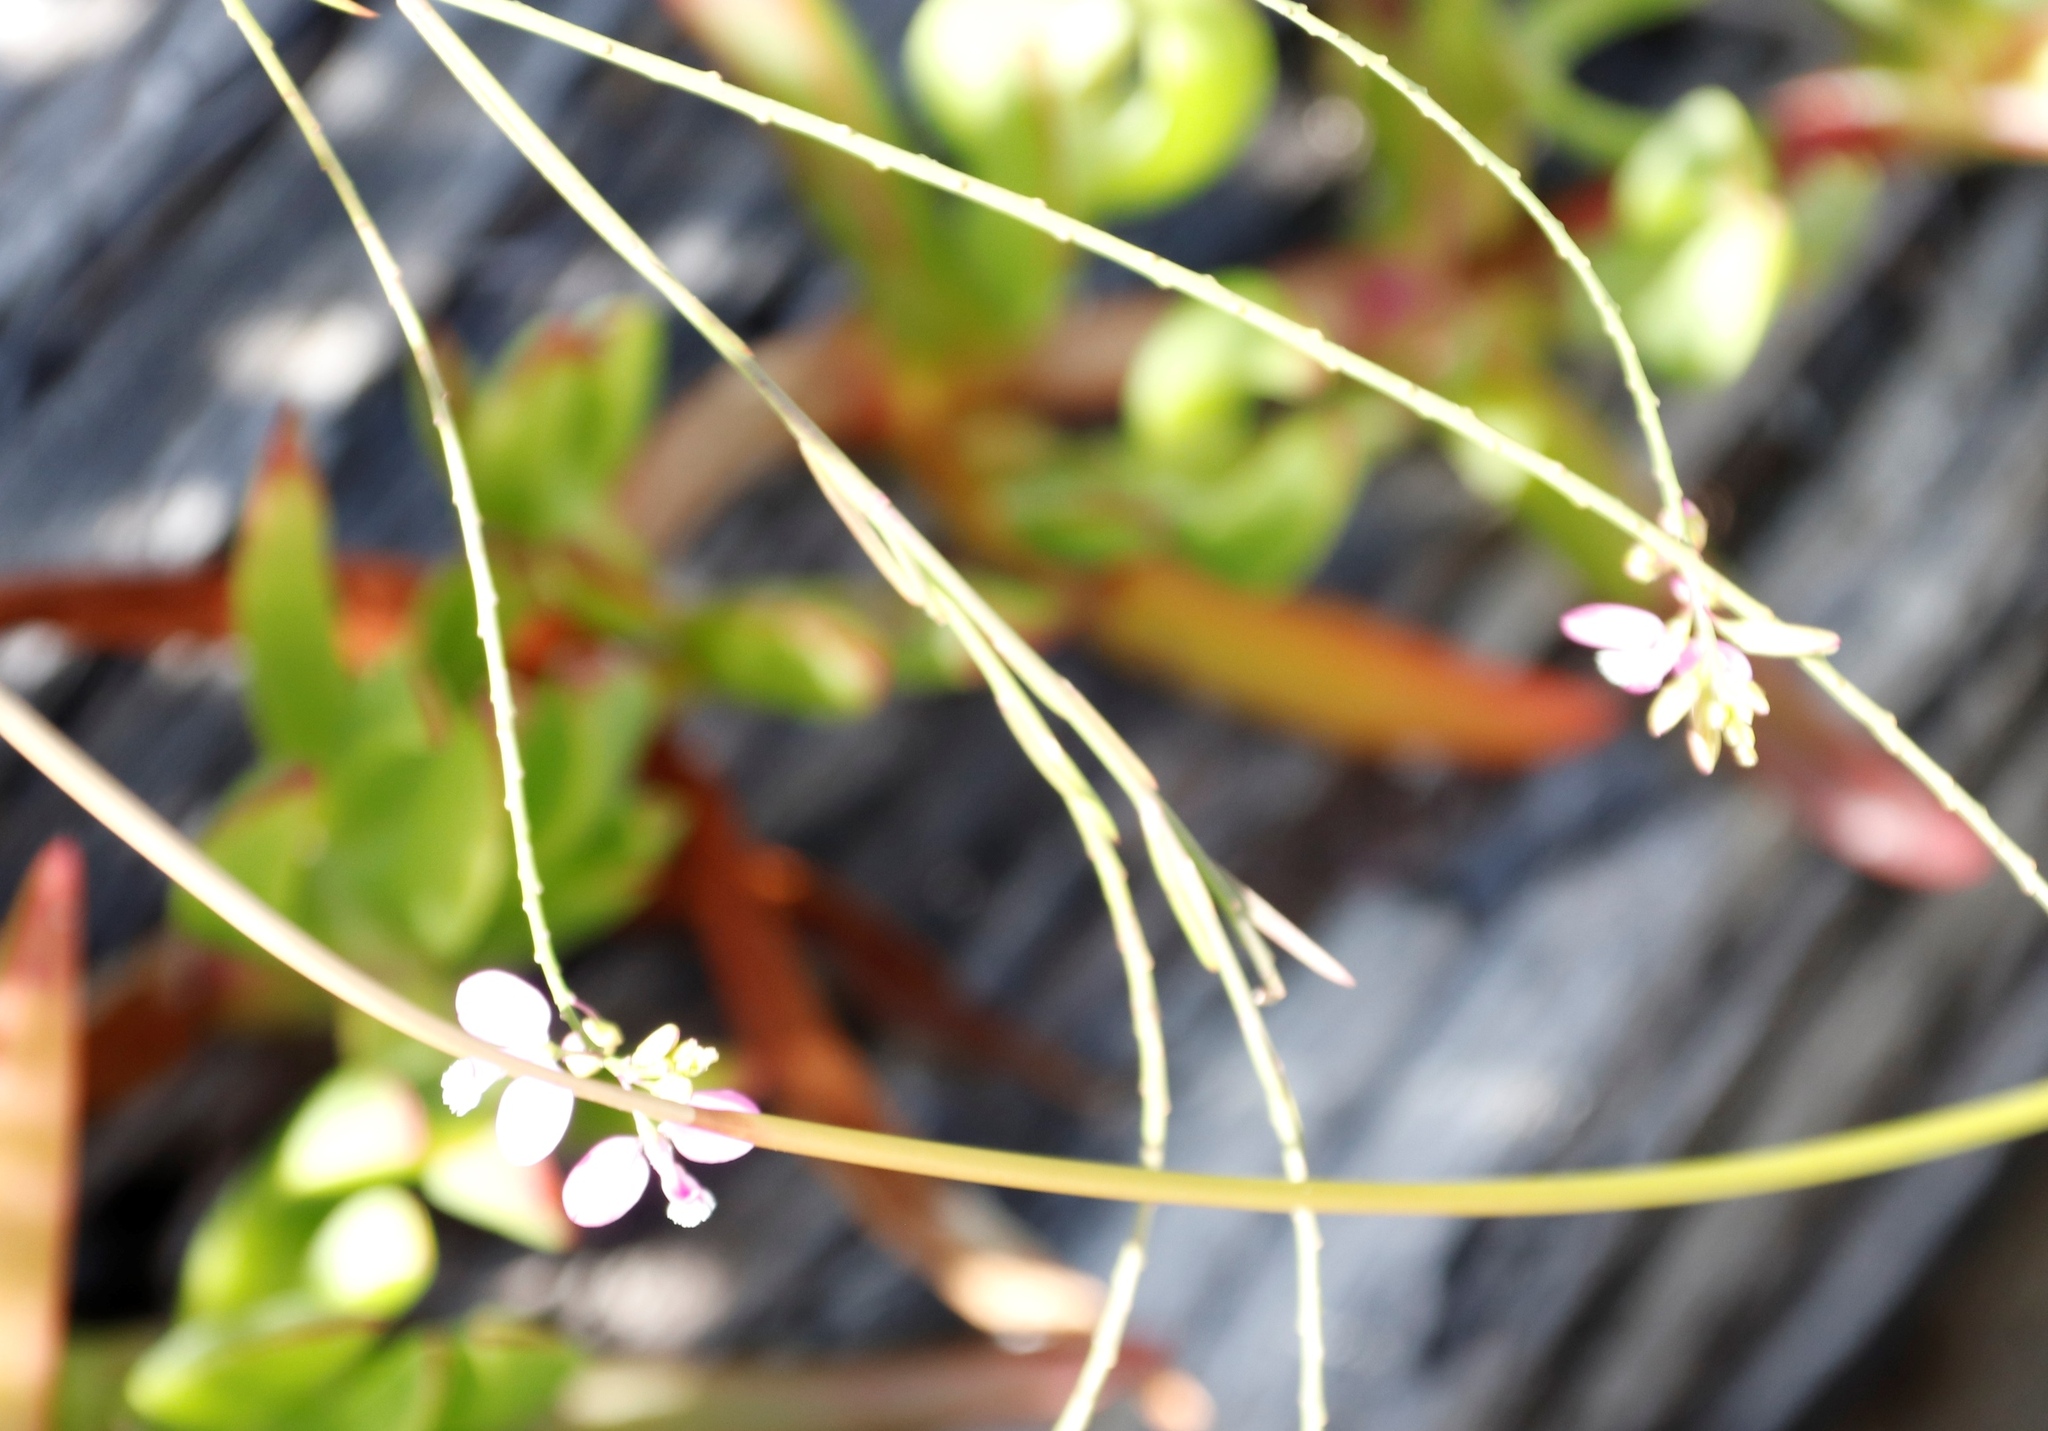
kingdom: Plantae
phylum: Tracheophyta
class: Magnoliopsida
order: Fabales
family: Polygalaceae
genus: Polygala
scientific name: Polygala garcini
